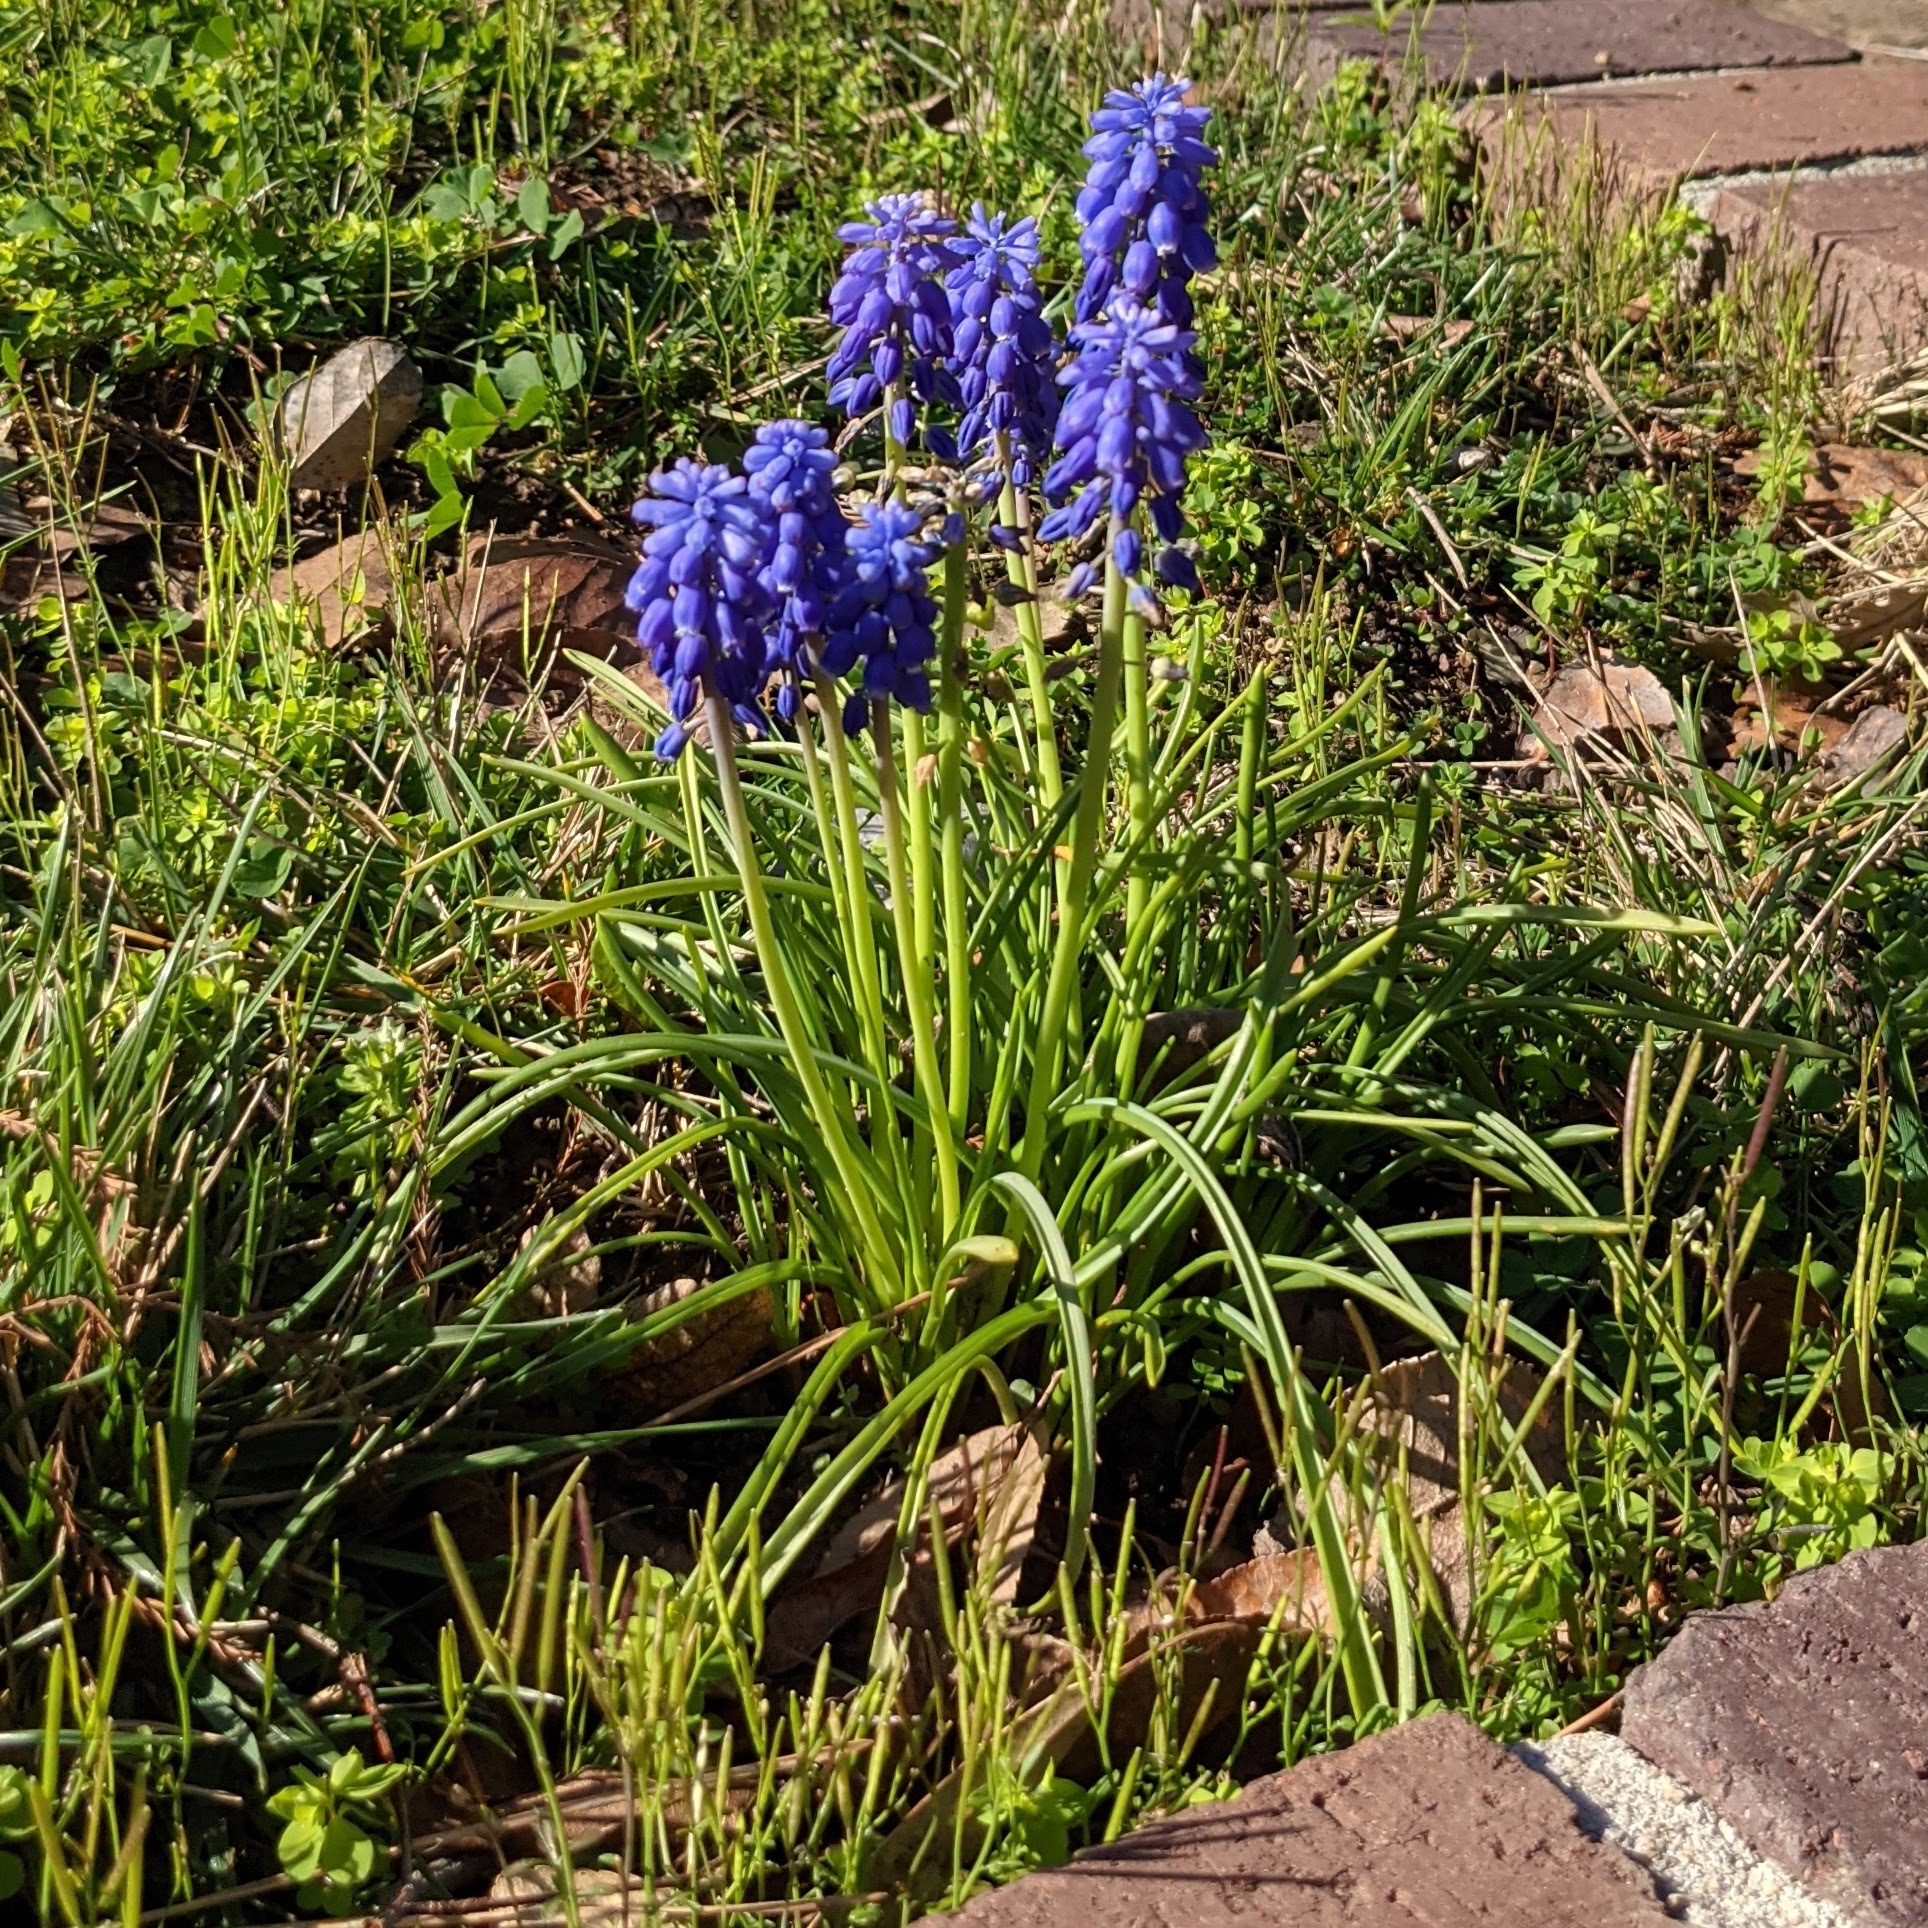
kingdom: Plantae
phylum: Tracheophyta
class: Liliopsida
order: Asparagales
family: Asparagaceae
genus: Muscari
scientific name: Muscari neglectum
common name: Grape-hyacinth
